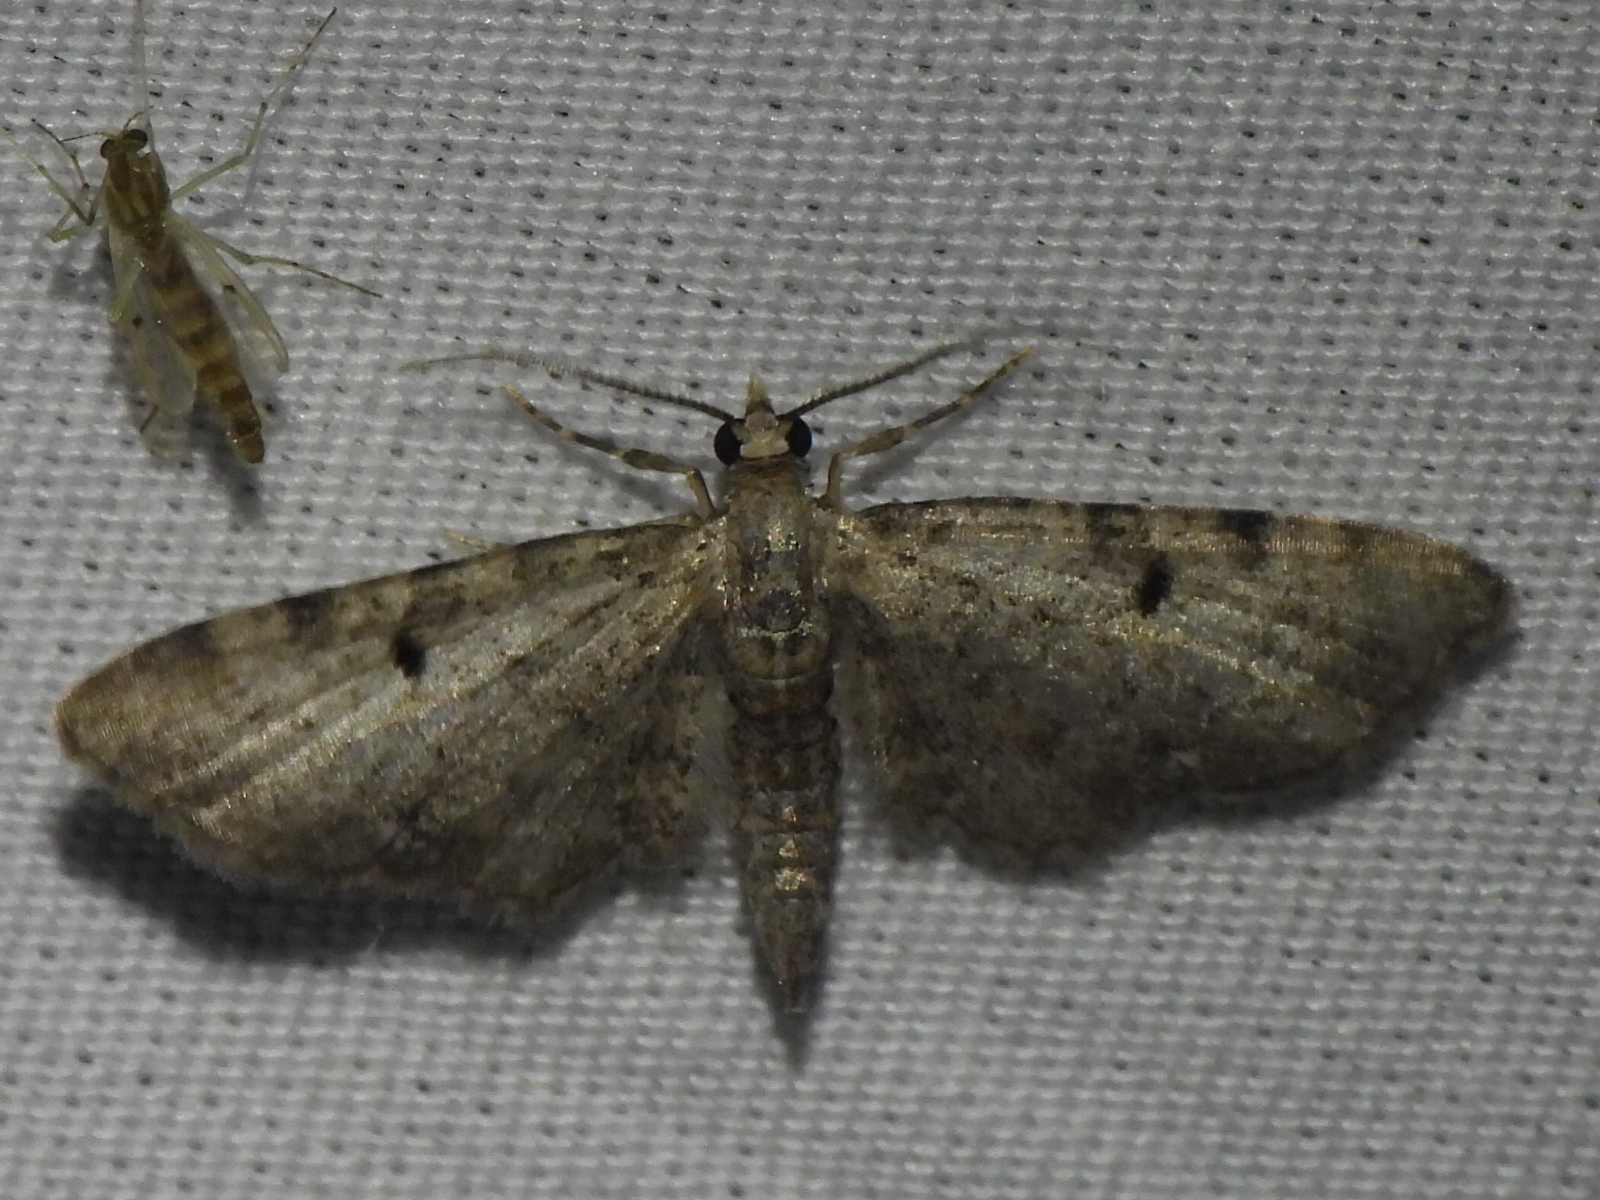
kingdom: Animalia
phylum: Arthropoda
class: Insecta
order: Lepidoptera
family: Geometridae
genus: Eupithecia
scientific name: Eupithecia miserulata
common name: Common eupithecia
